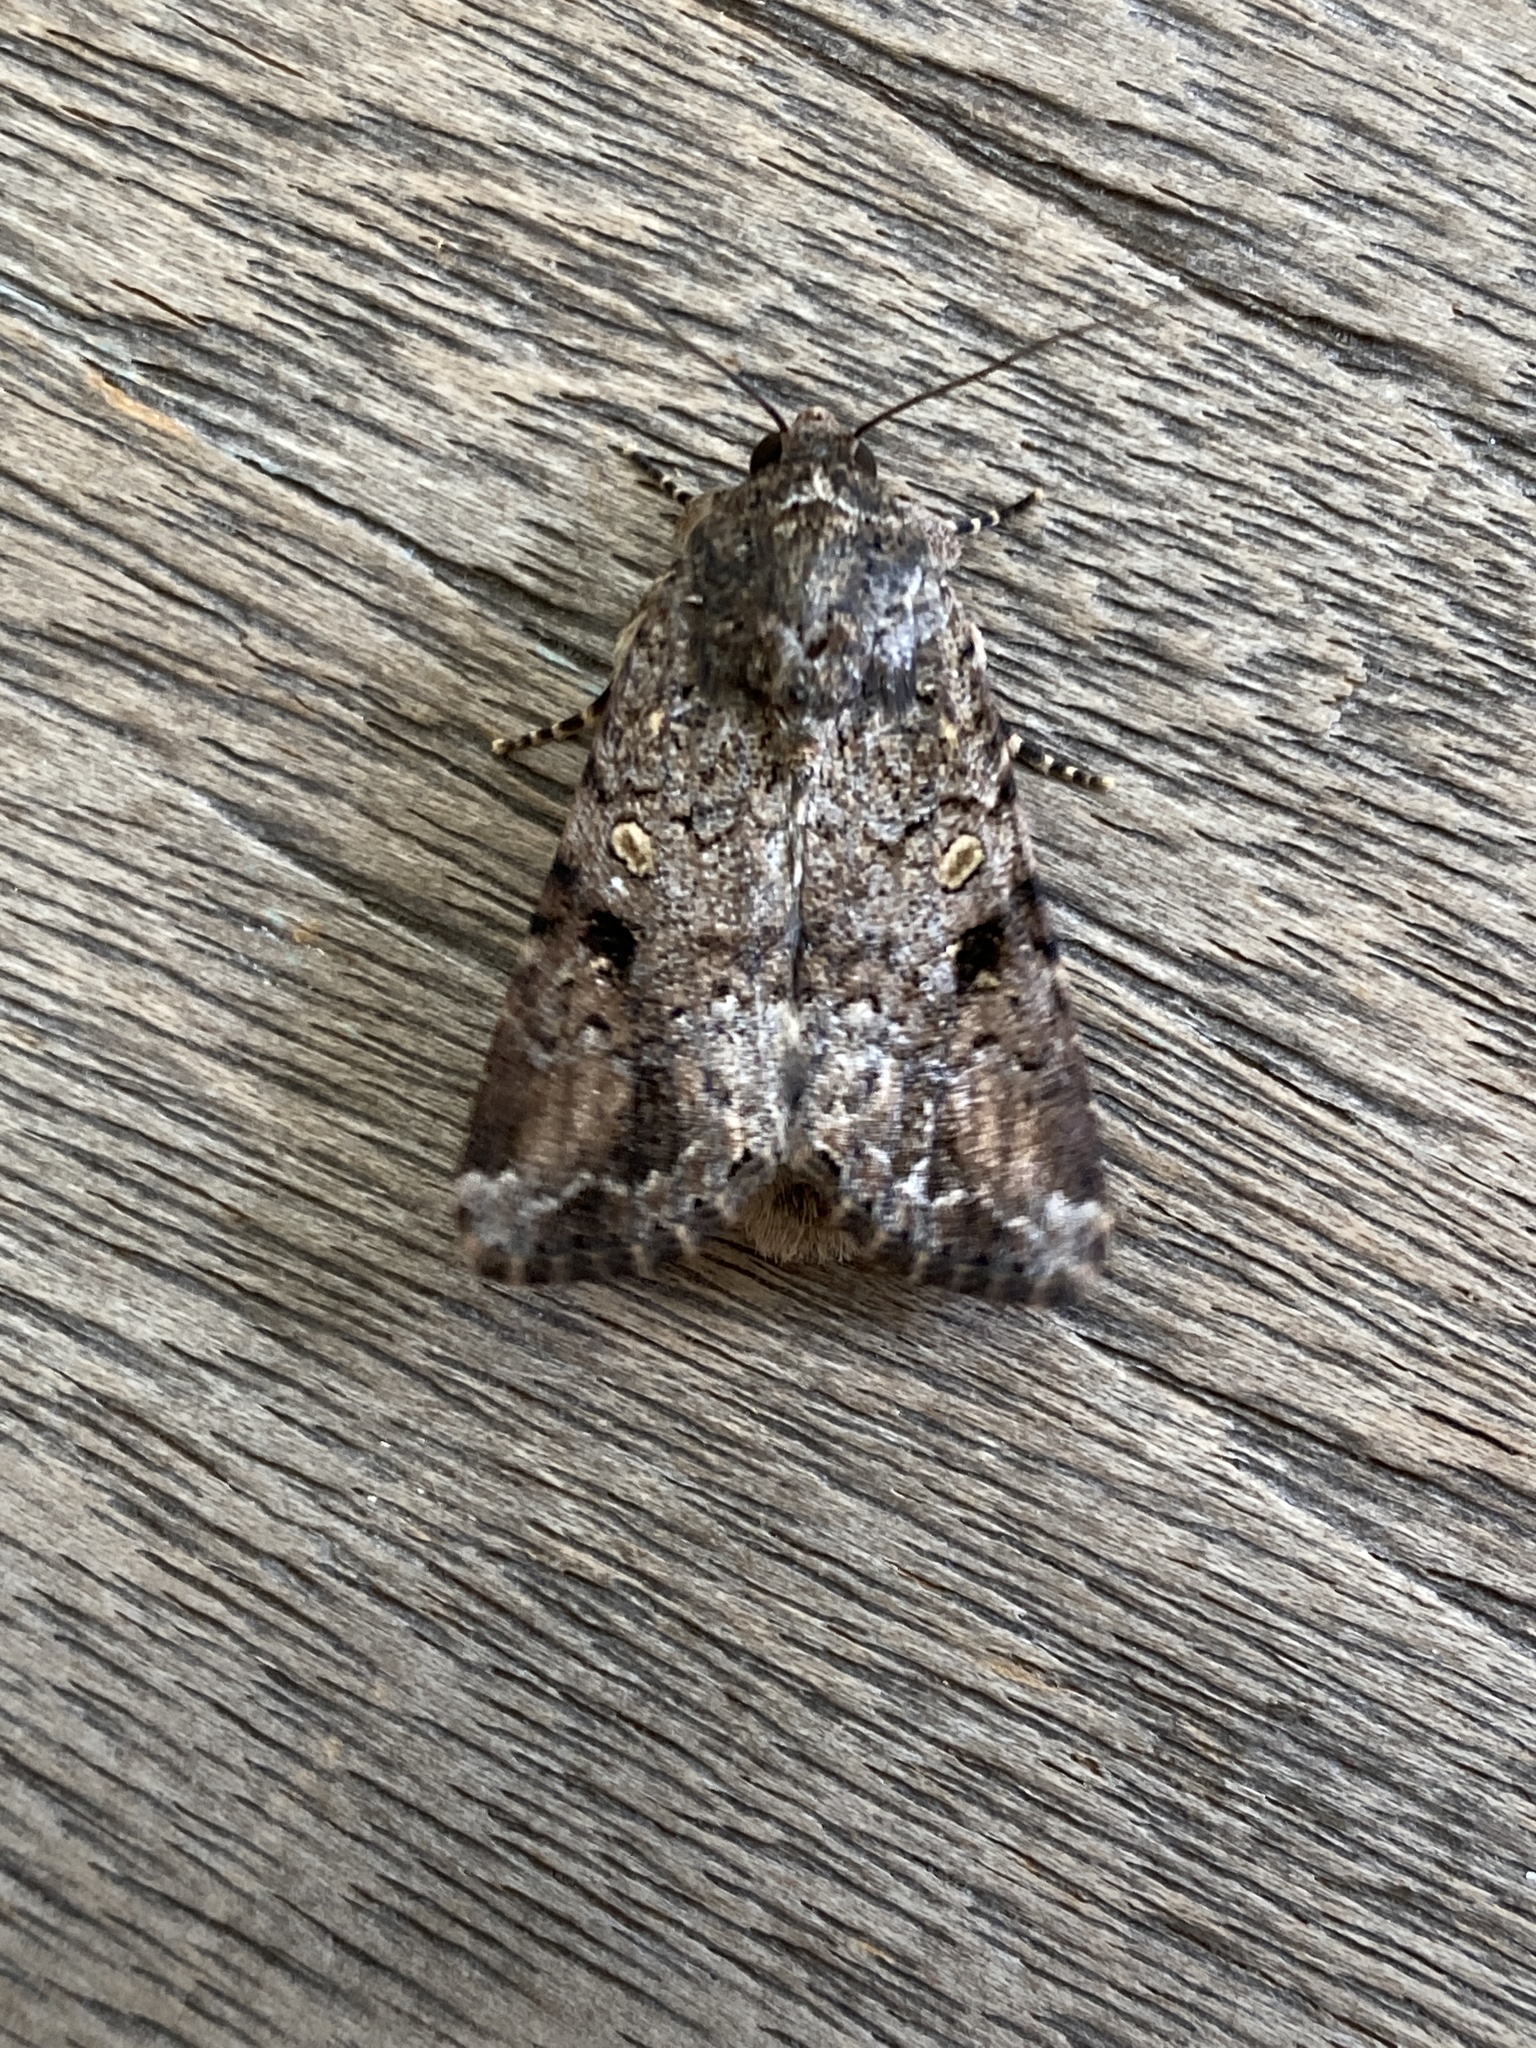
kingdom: Animalia
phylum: Arthropoda
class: Insecta
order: Lepidoptera
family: Noctuidae
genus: Spodoptera
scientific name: Spodoptera mauritia
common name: Lawn armyworm
